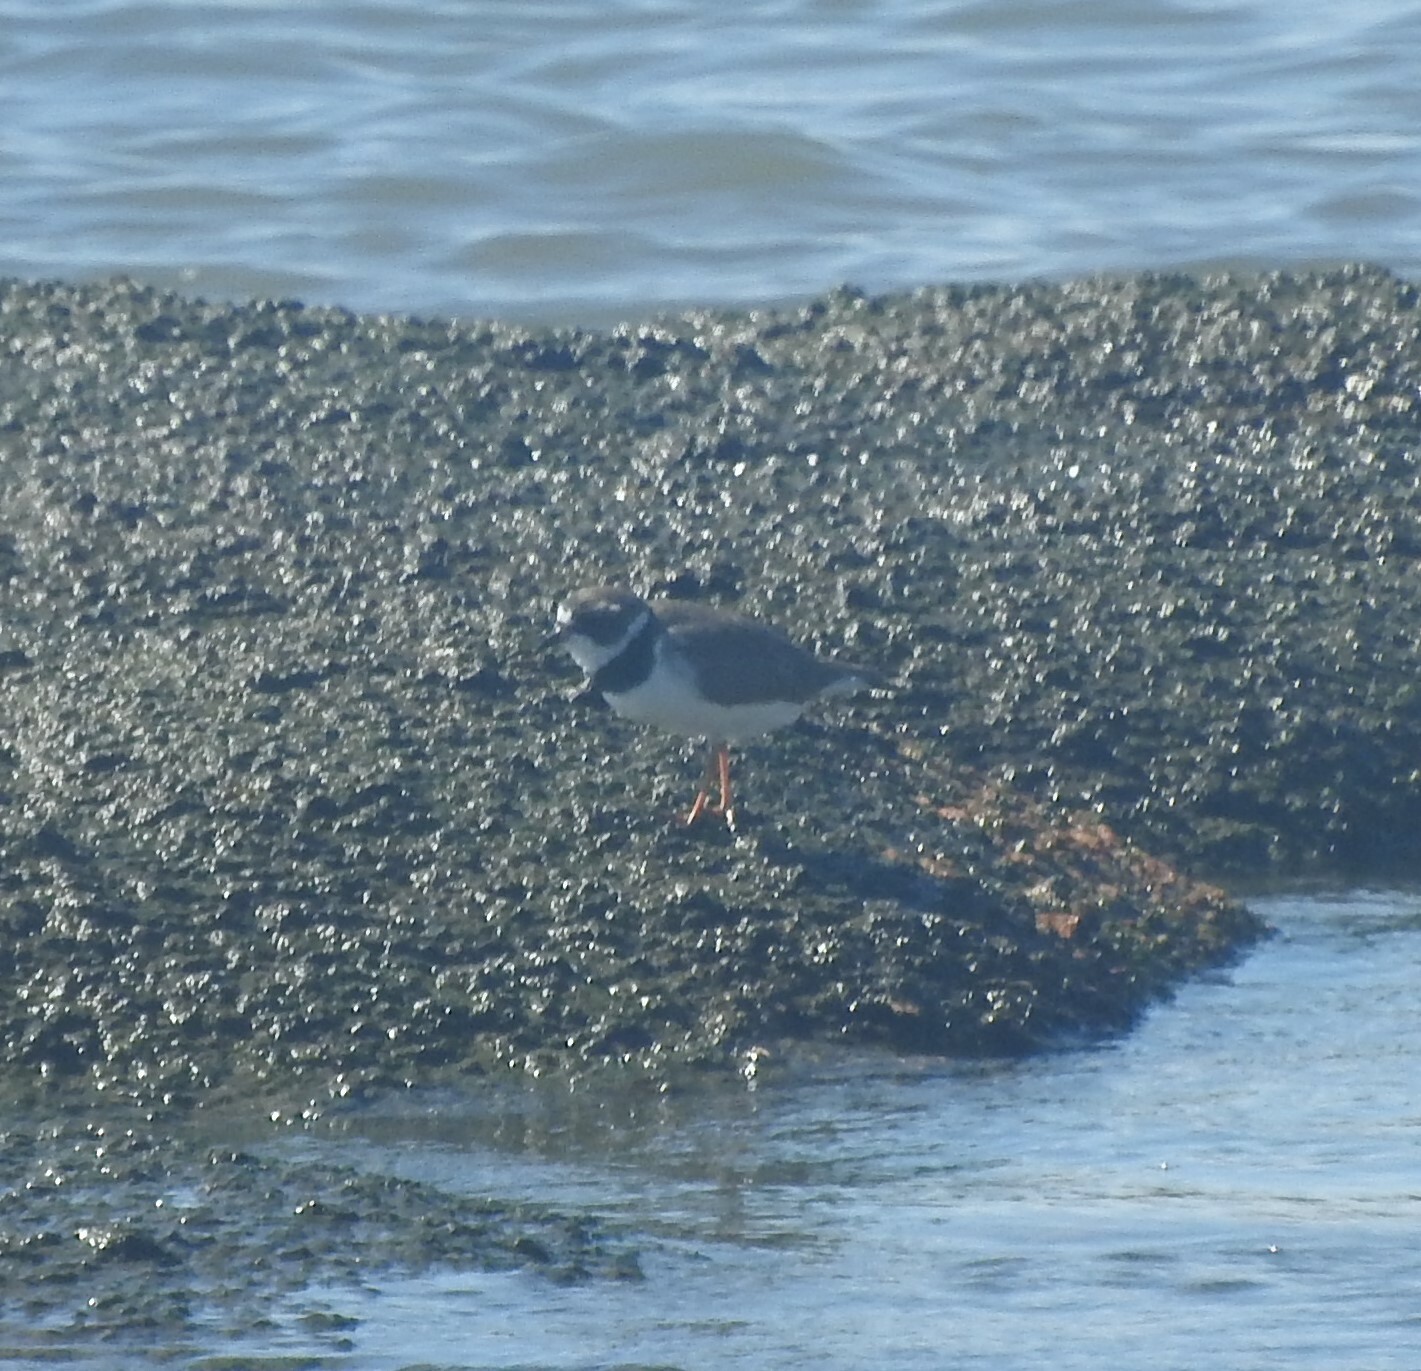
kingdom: Animalia
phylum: Chordata
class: Aves
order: Charadriiformes
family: Charadriidae
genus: Charadrius
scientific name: Charadrius semipalmatus
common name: Semipalmated plover
